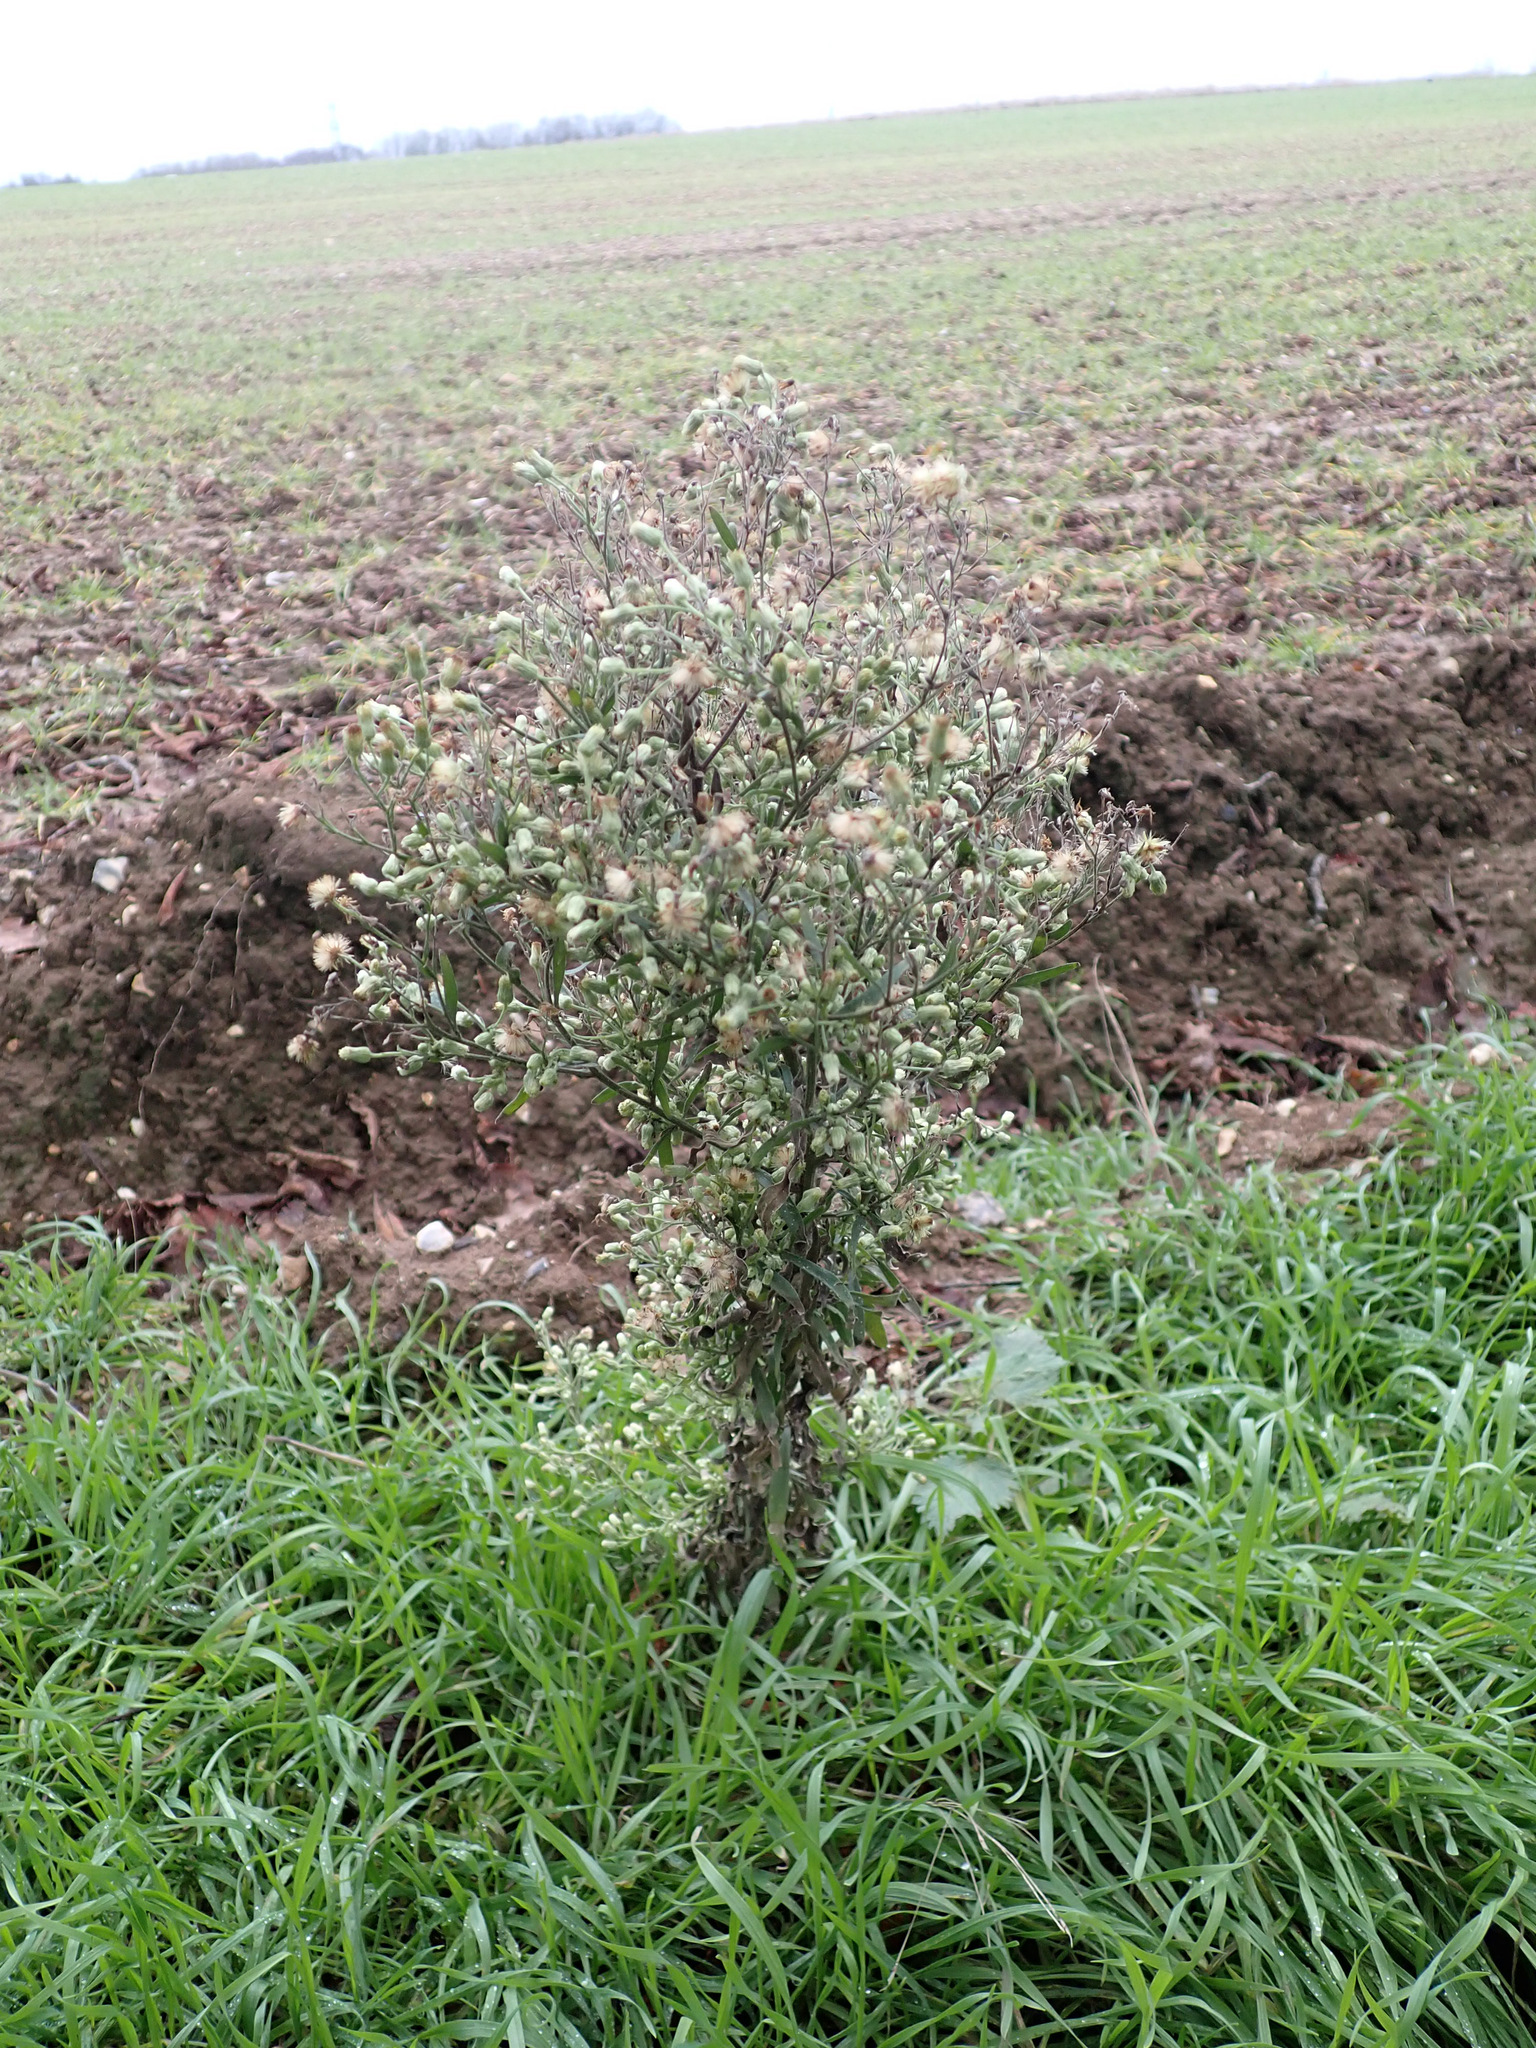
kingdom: Plantae
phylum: Tracheophyta
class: Magnoliopsida
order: Asterales
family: Asteraceae
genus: Erigeron
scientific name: Erigeron sumatrensis
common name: Daisy
